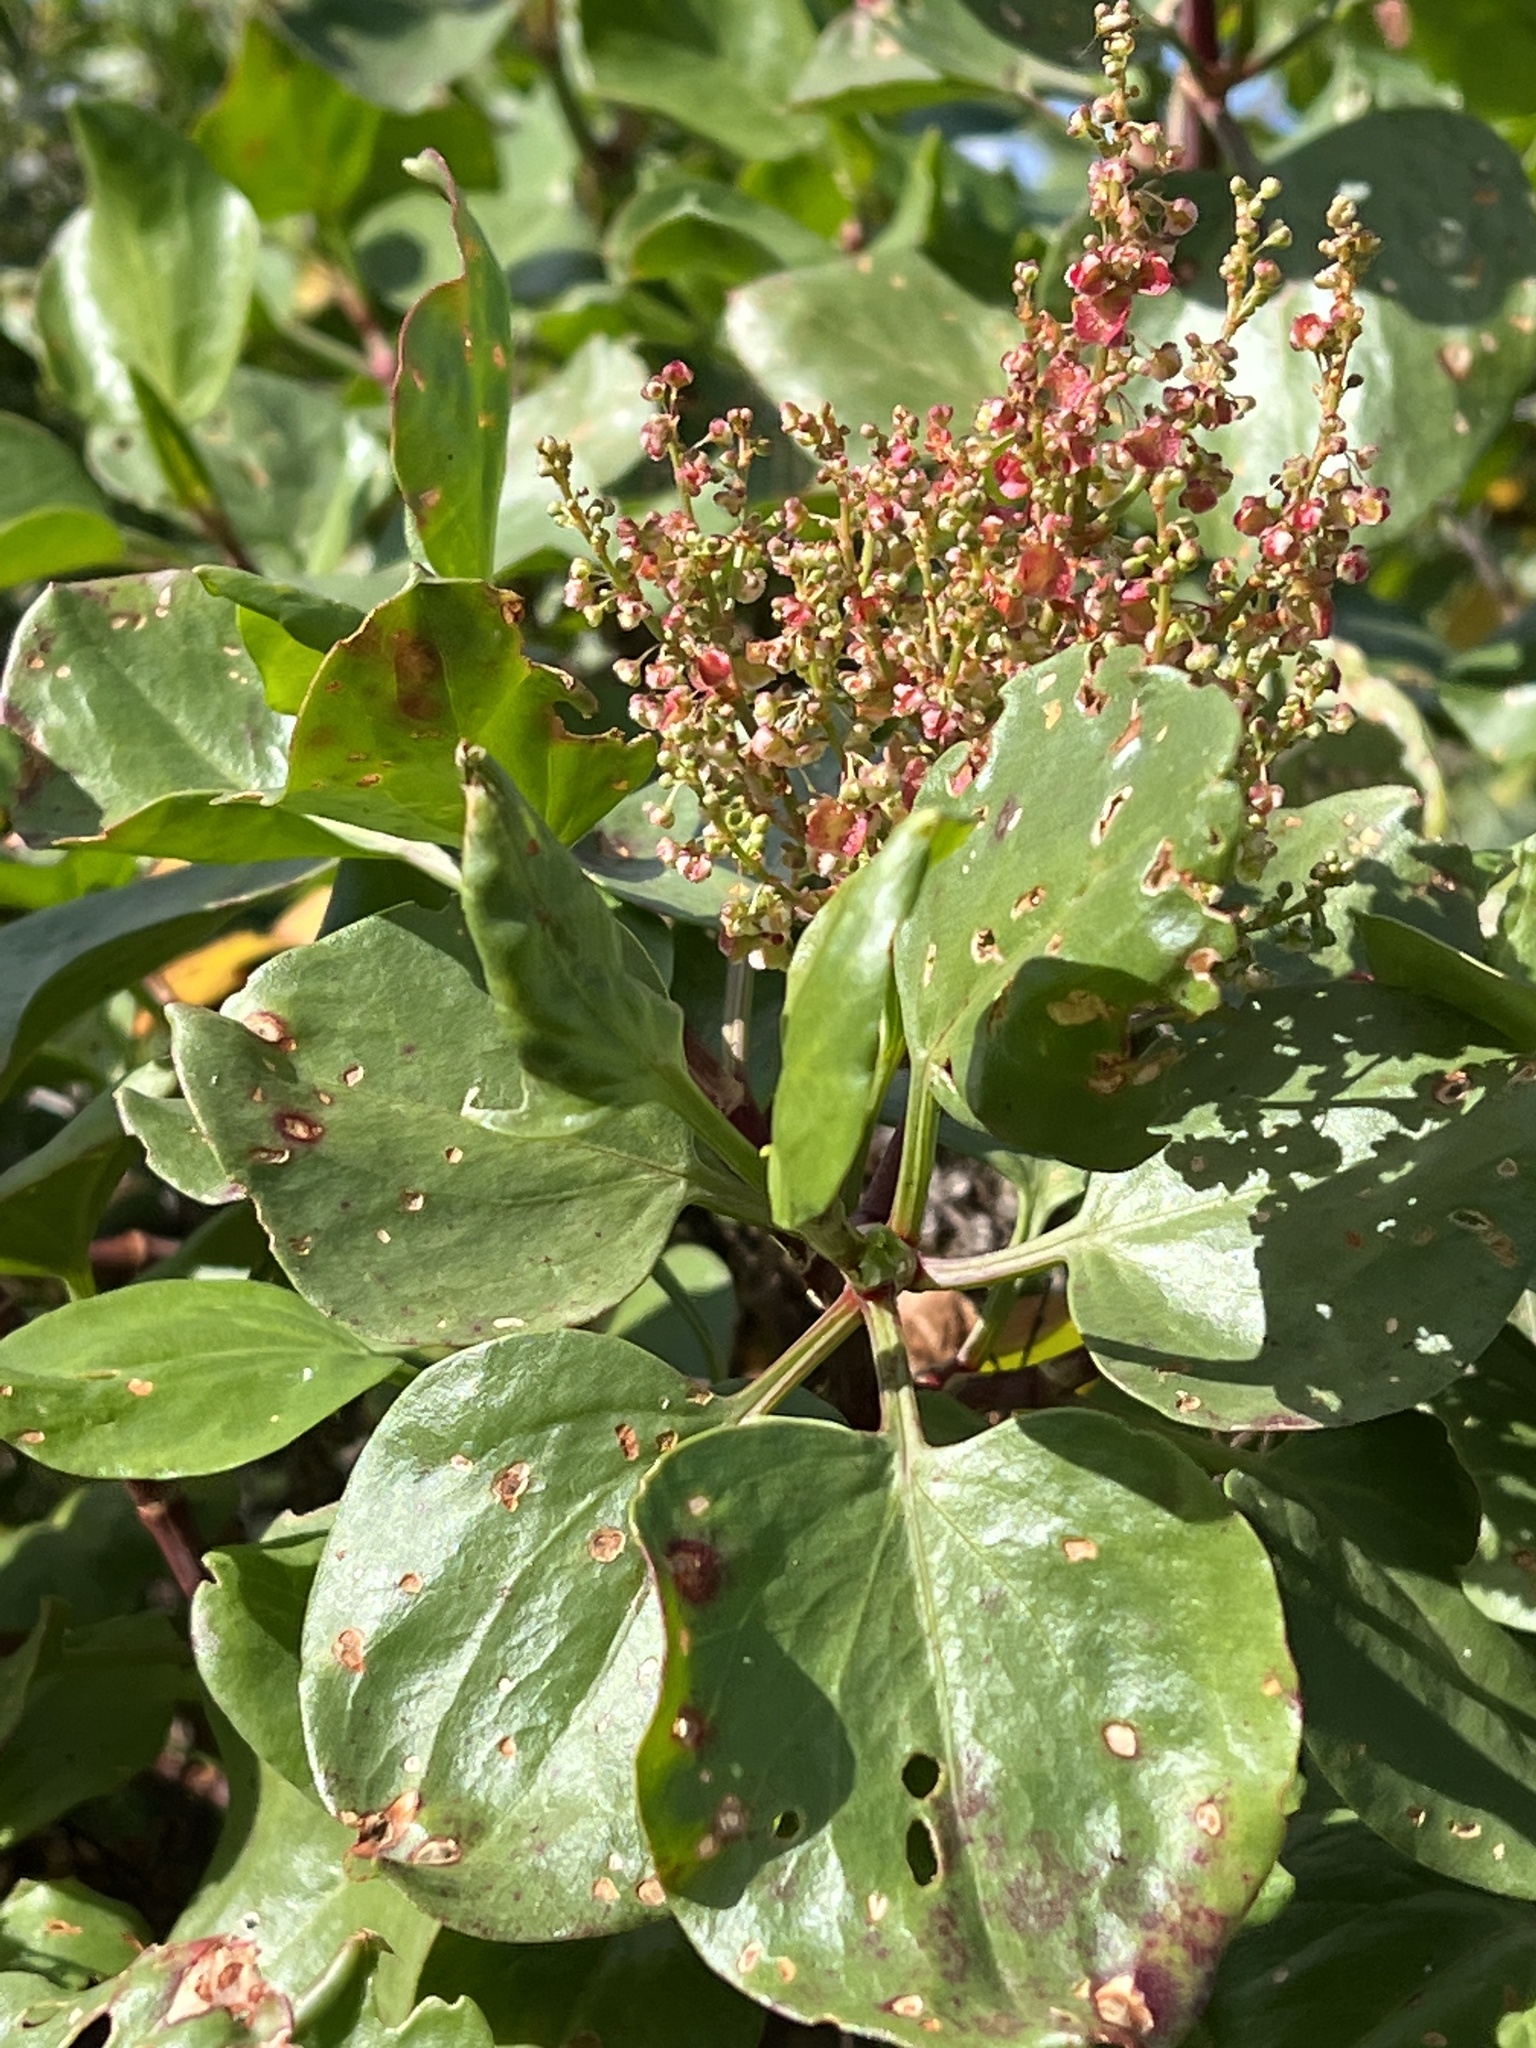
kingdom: Plantae
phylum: Tracheophyta
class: Magnoliopsida
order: Caryophyllales
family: Polygonaceae
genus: Rumex
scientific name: Rumex lunaria
